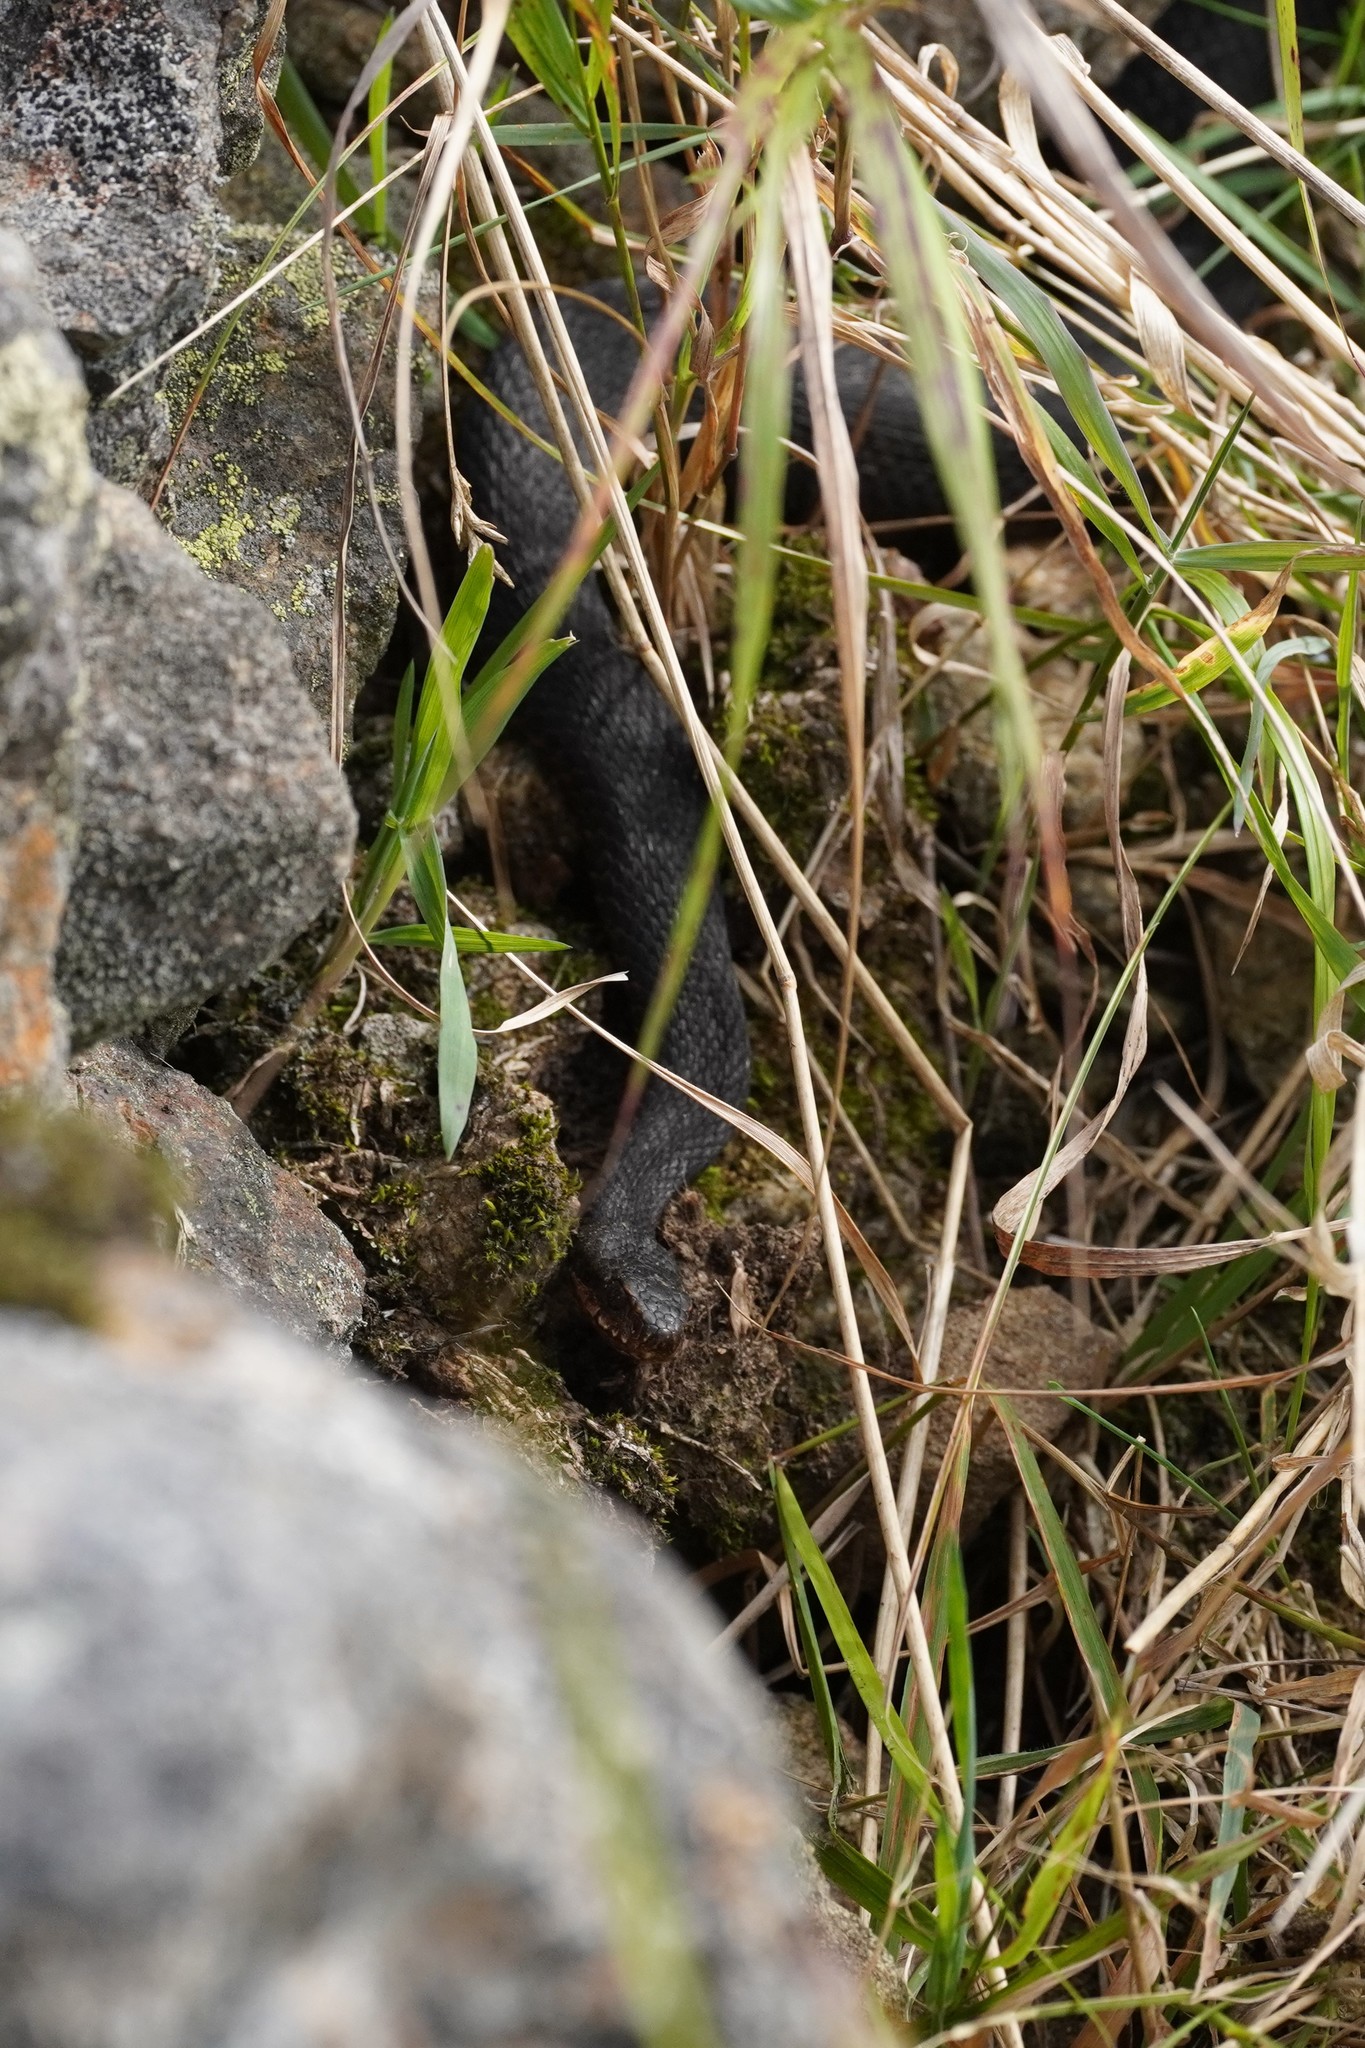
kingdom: Animalia
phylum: Chordata
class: Squamata
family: Viperidae
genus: Vipera
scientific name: Vipera berus
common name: Adder
